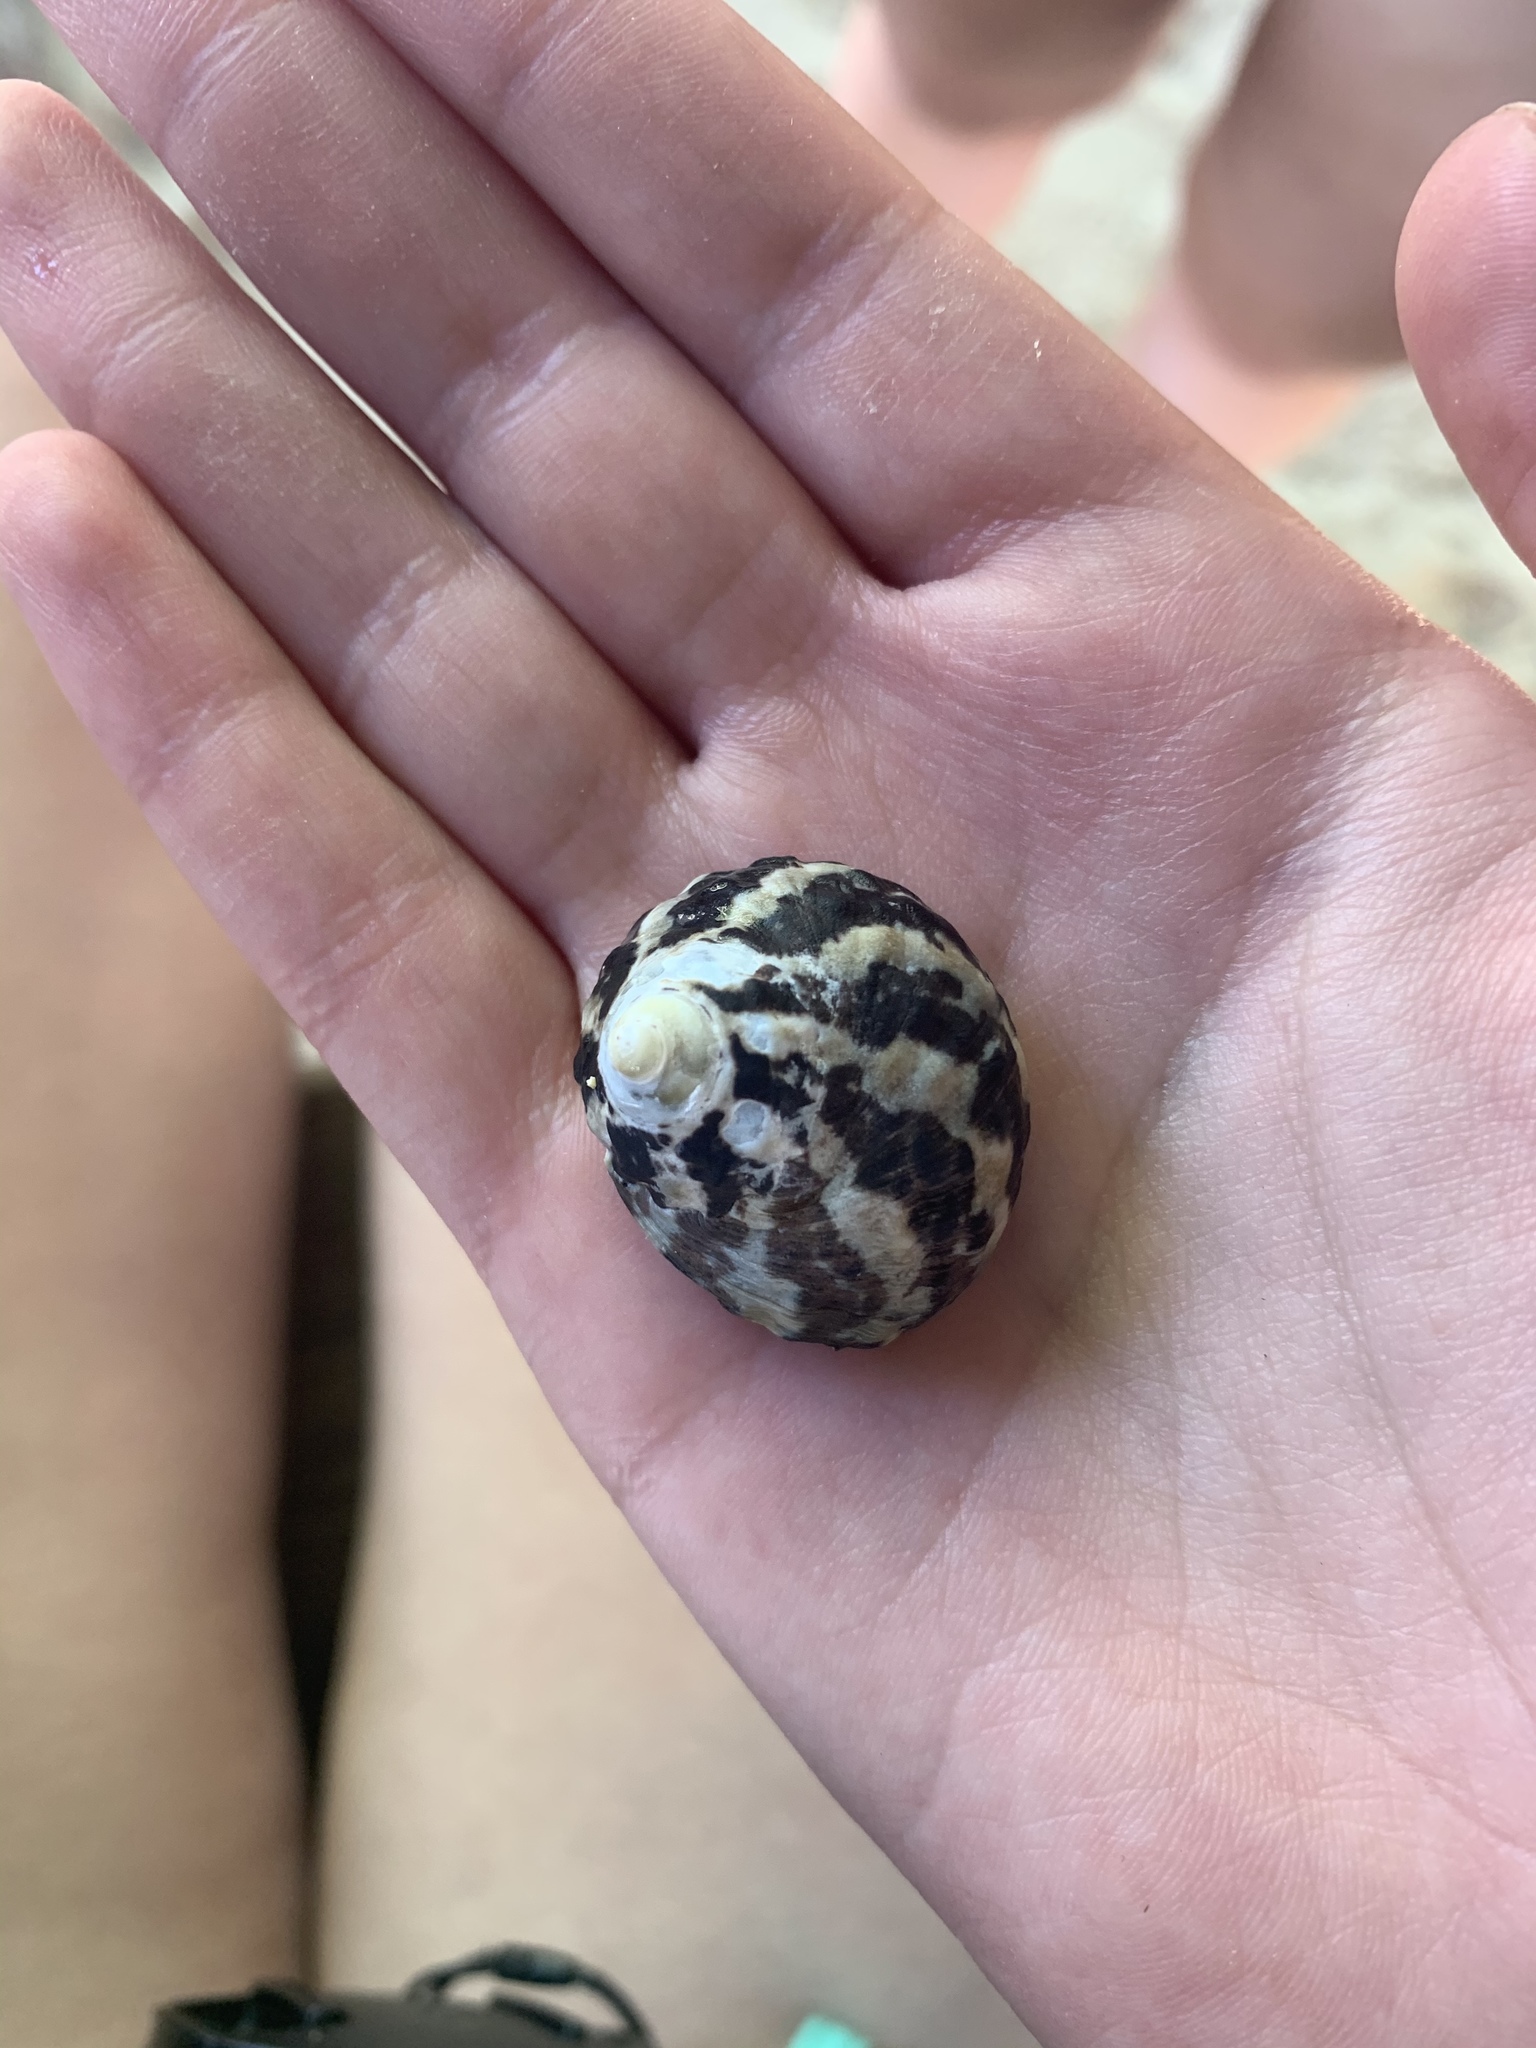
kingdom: Animalia
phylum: Mollusca
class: Gastropoda
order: Trochida
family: Tegulidae
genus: Cittarium
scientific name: Cittarium pica
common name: West indian topshell
